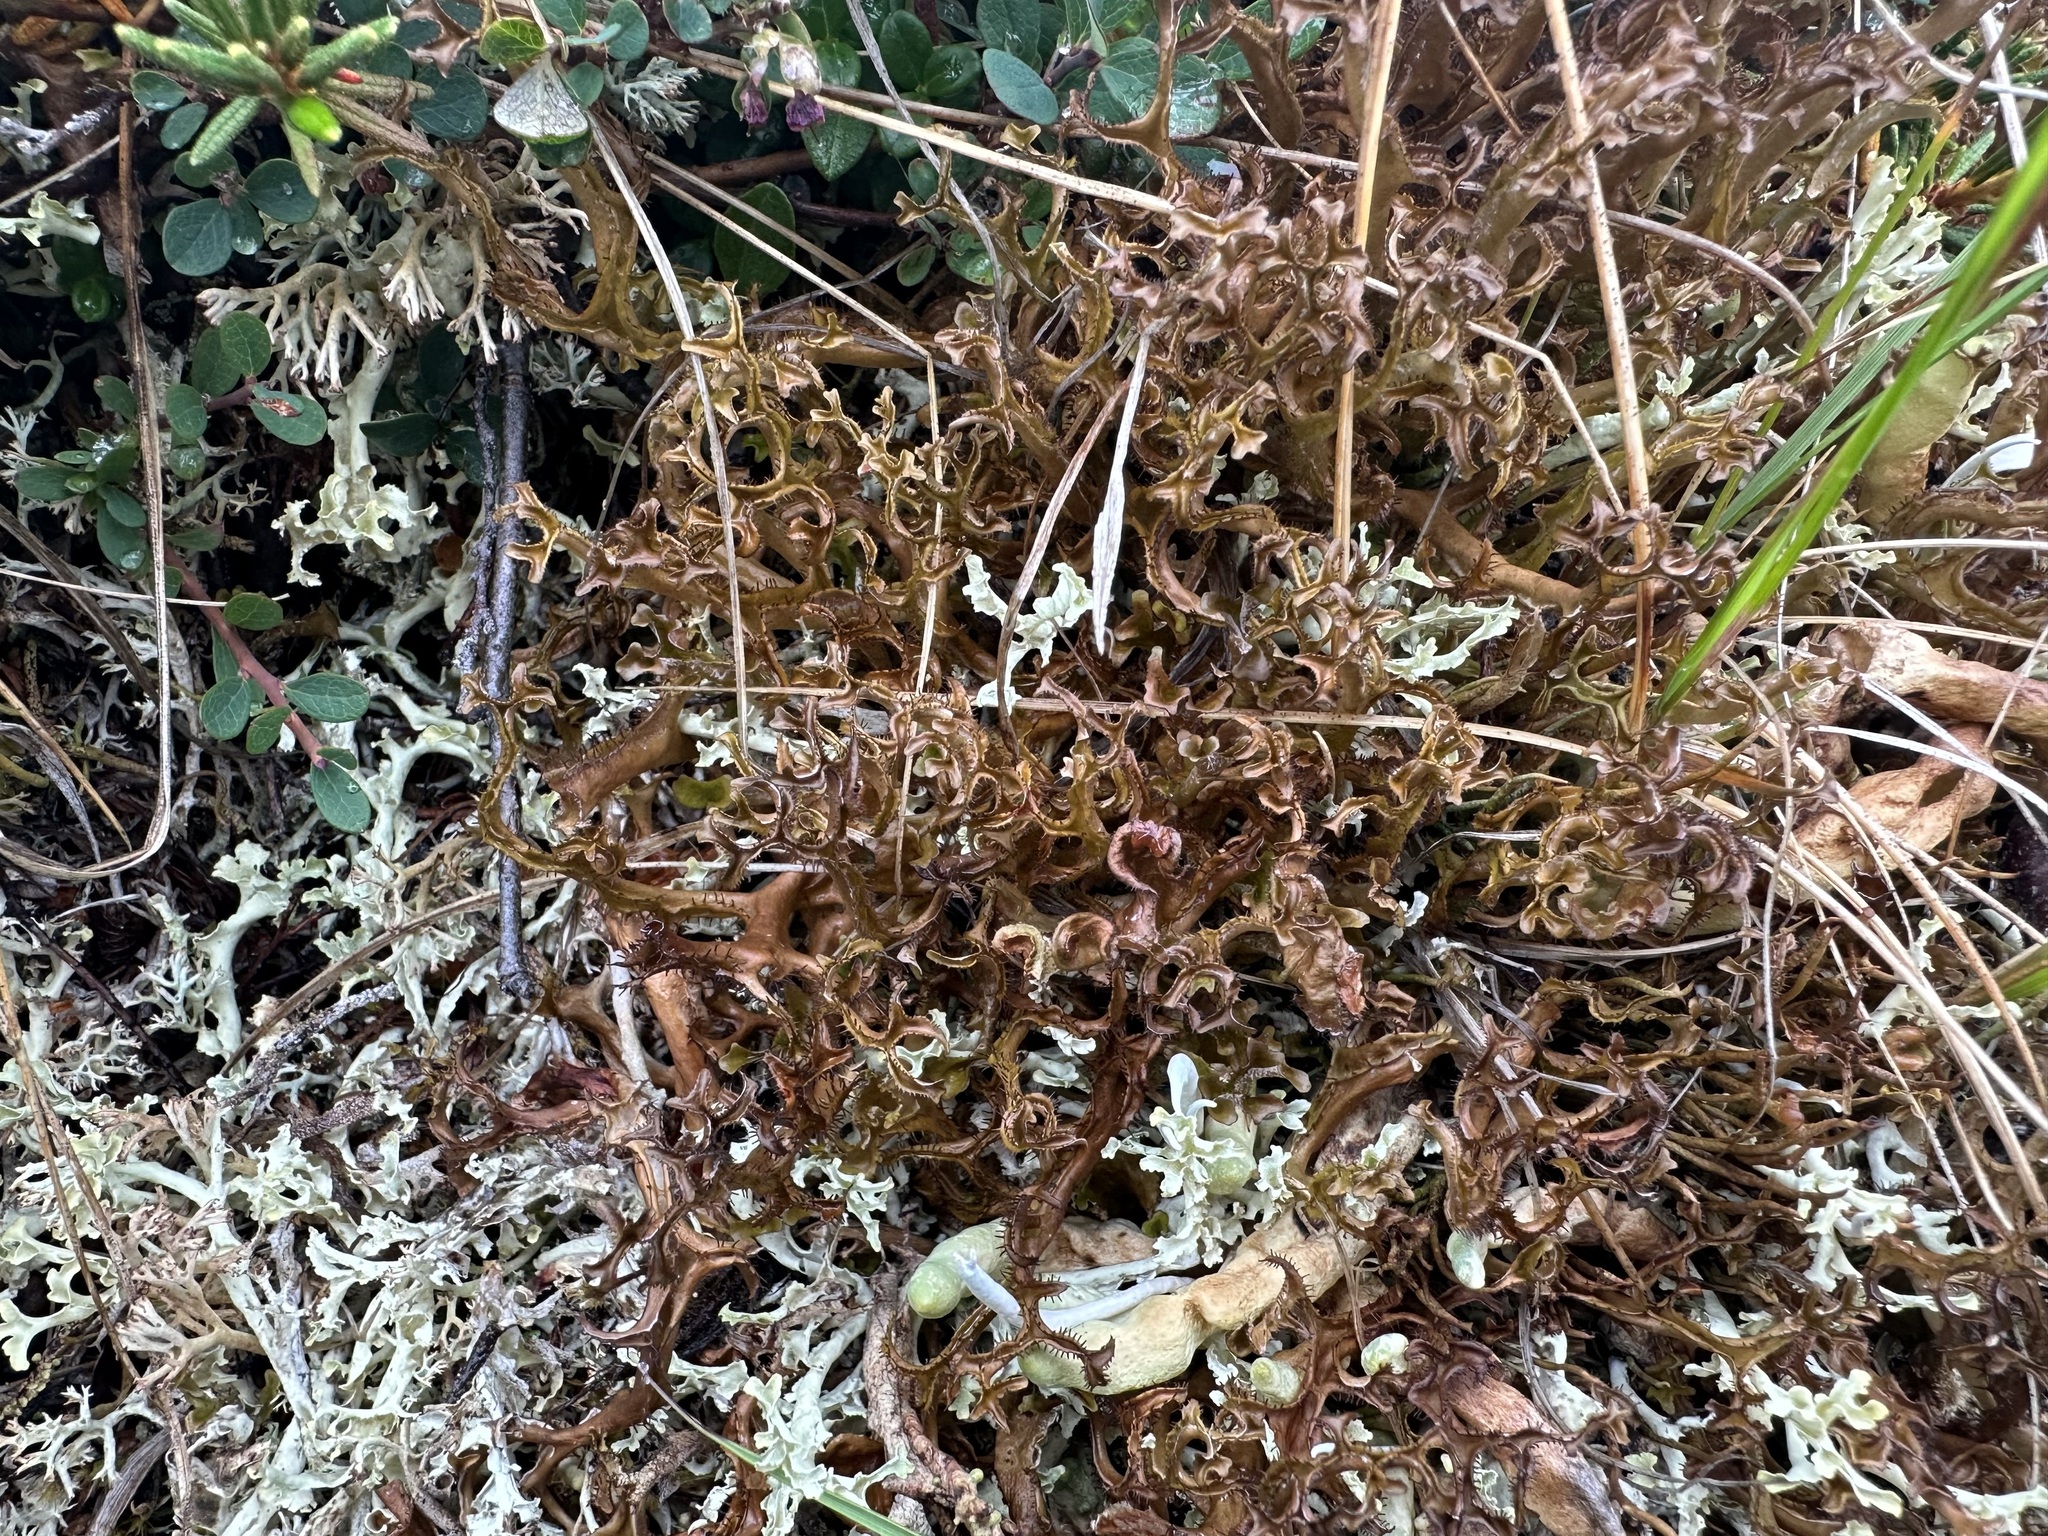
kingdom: Fungi
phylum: Ascomycota
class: Lecanoromycetes
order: Lecanorales
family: Parmeliaceae
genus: Cetraria
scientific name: Cetraria laevigata
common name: Striped iceland lichen
